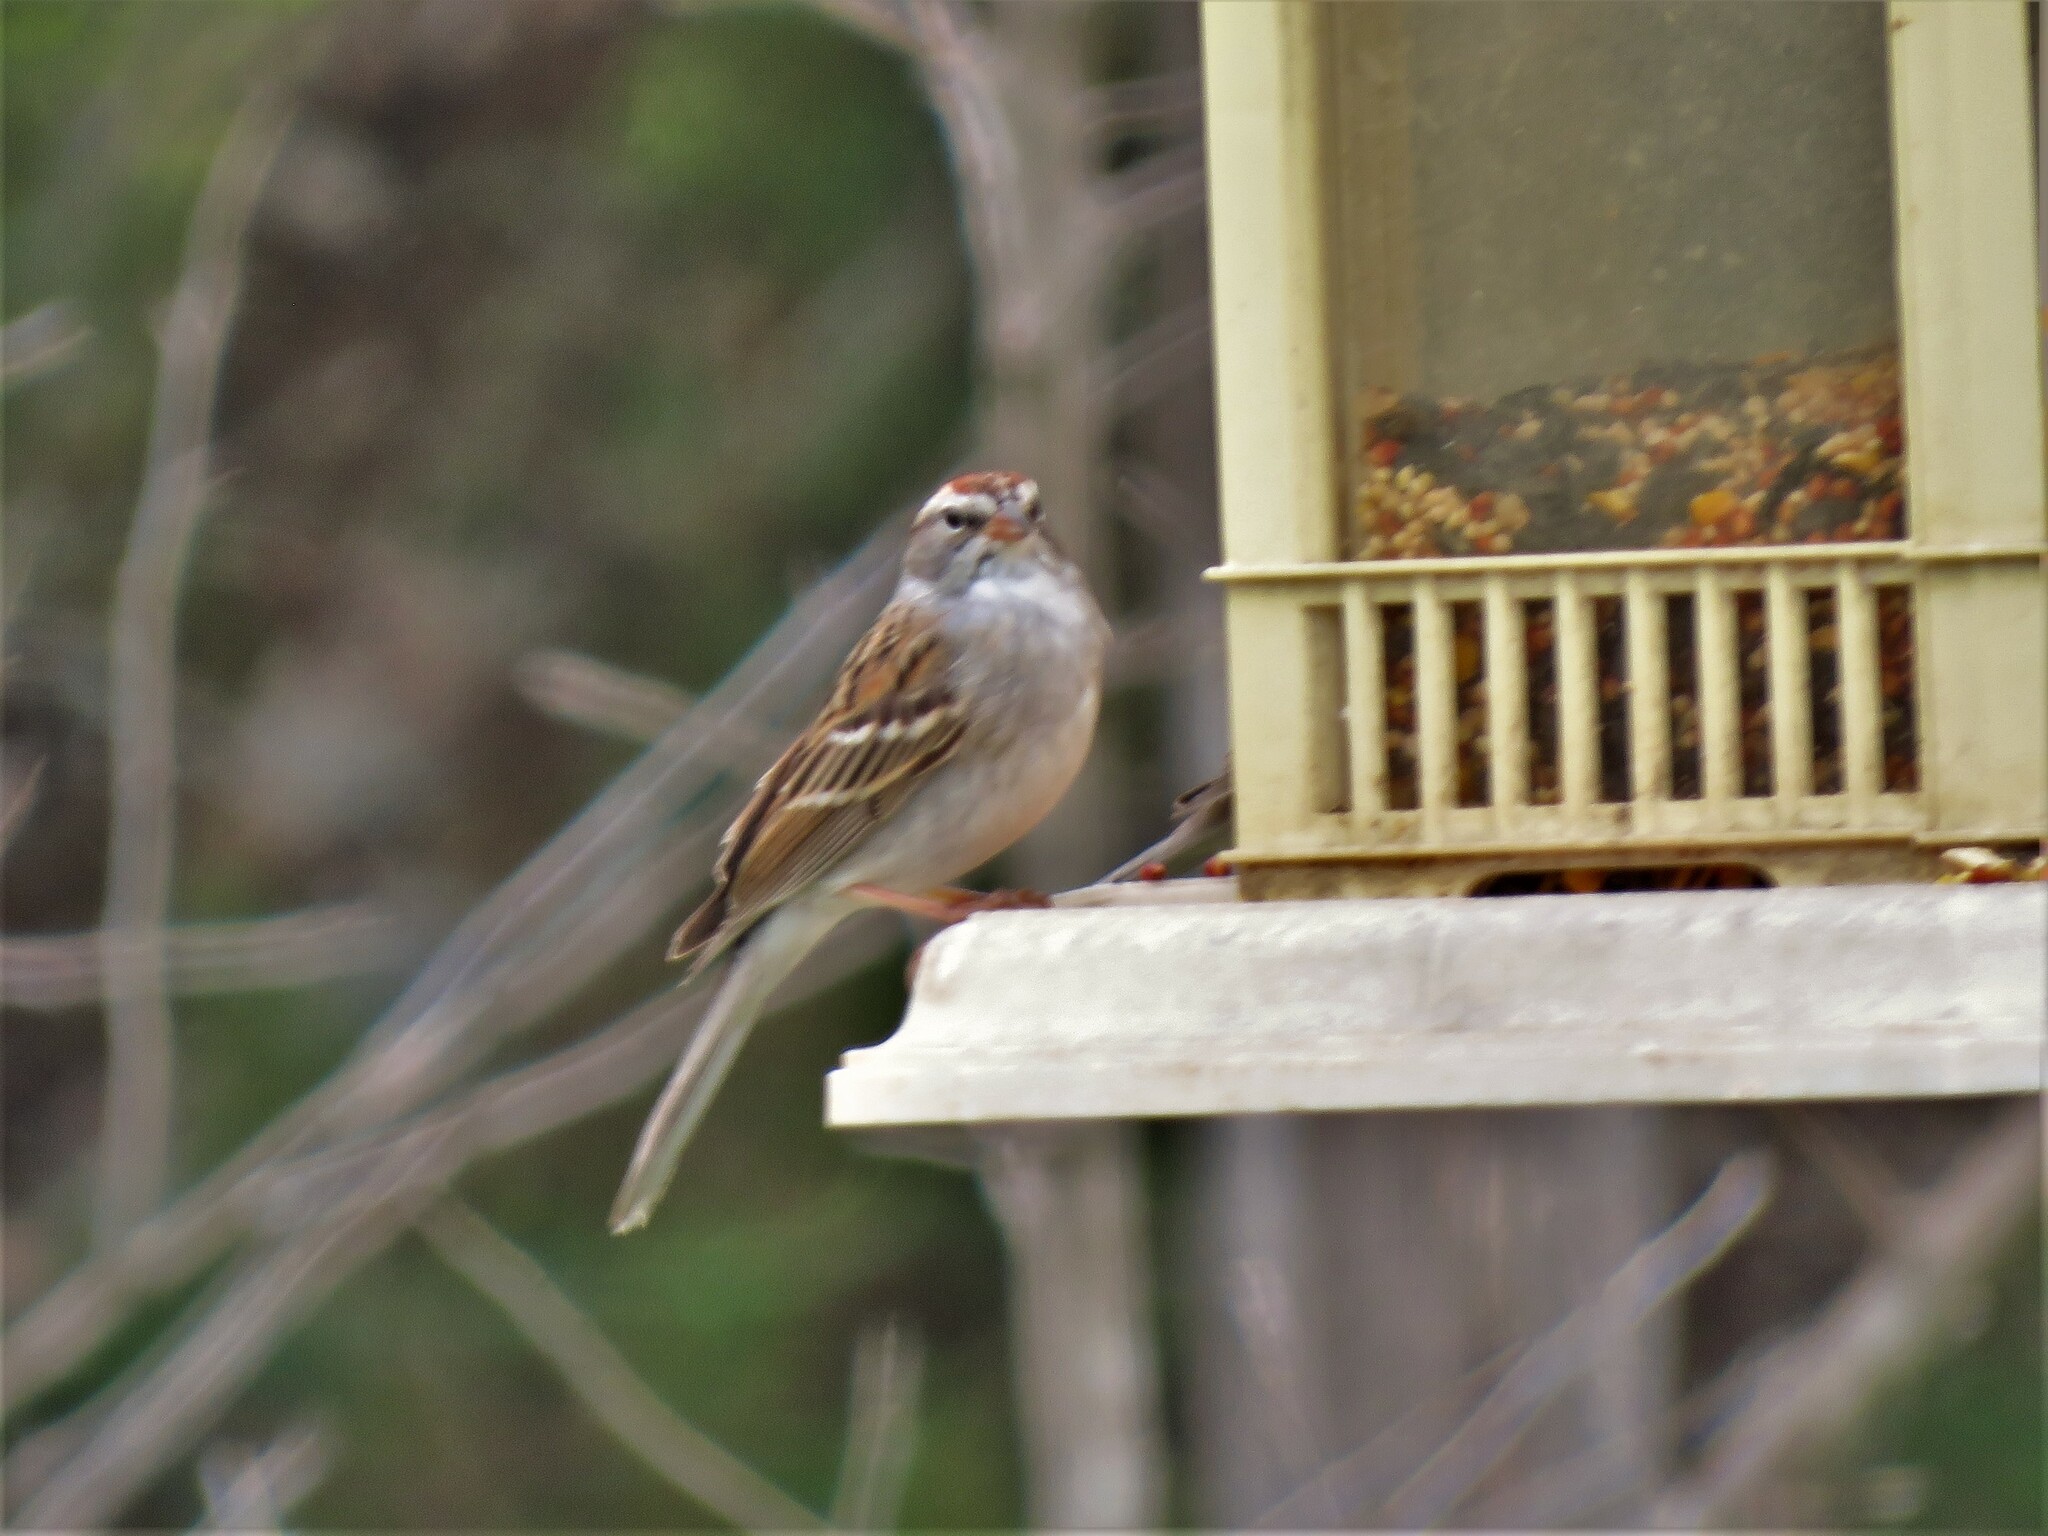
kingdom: Animalia
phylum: Chordata
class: Aves
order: Passeriformes
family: Passerellidae
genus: Spizella
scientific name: Spizella passerina
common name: Chipping sparrow
